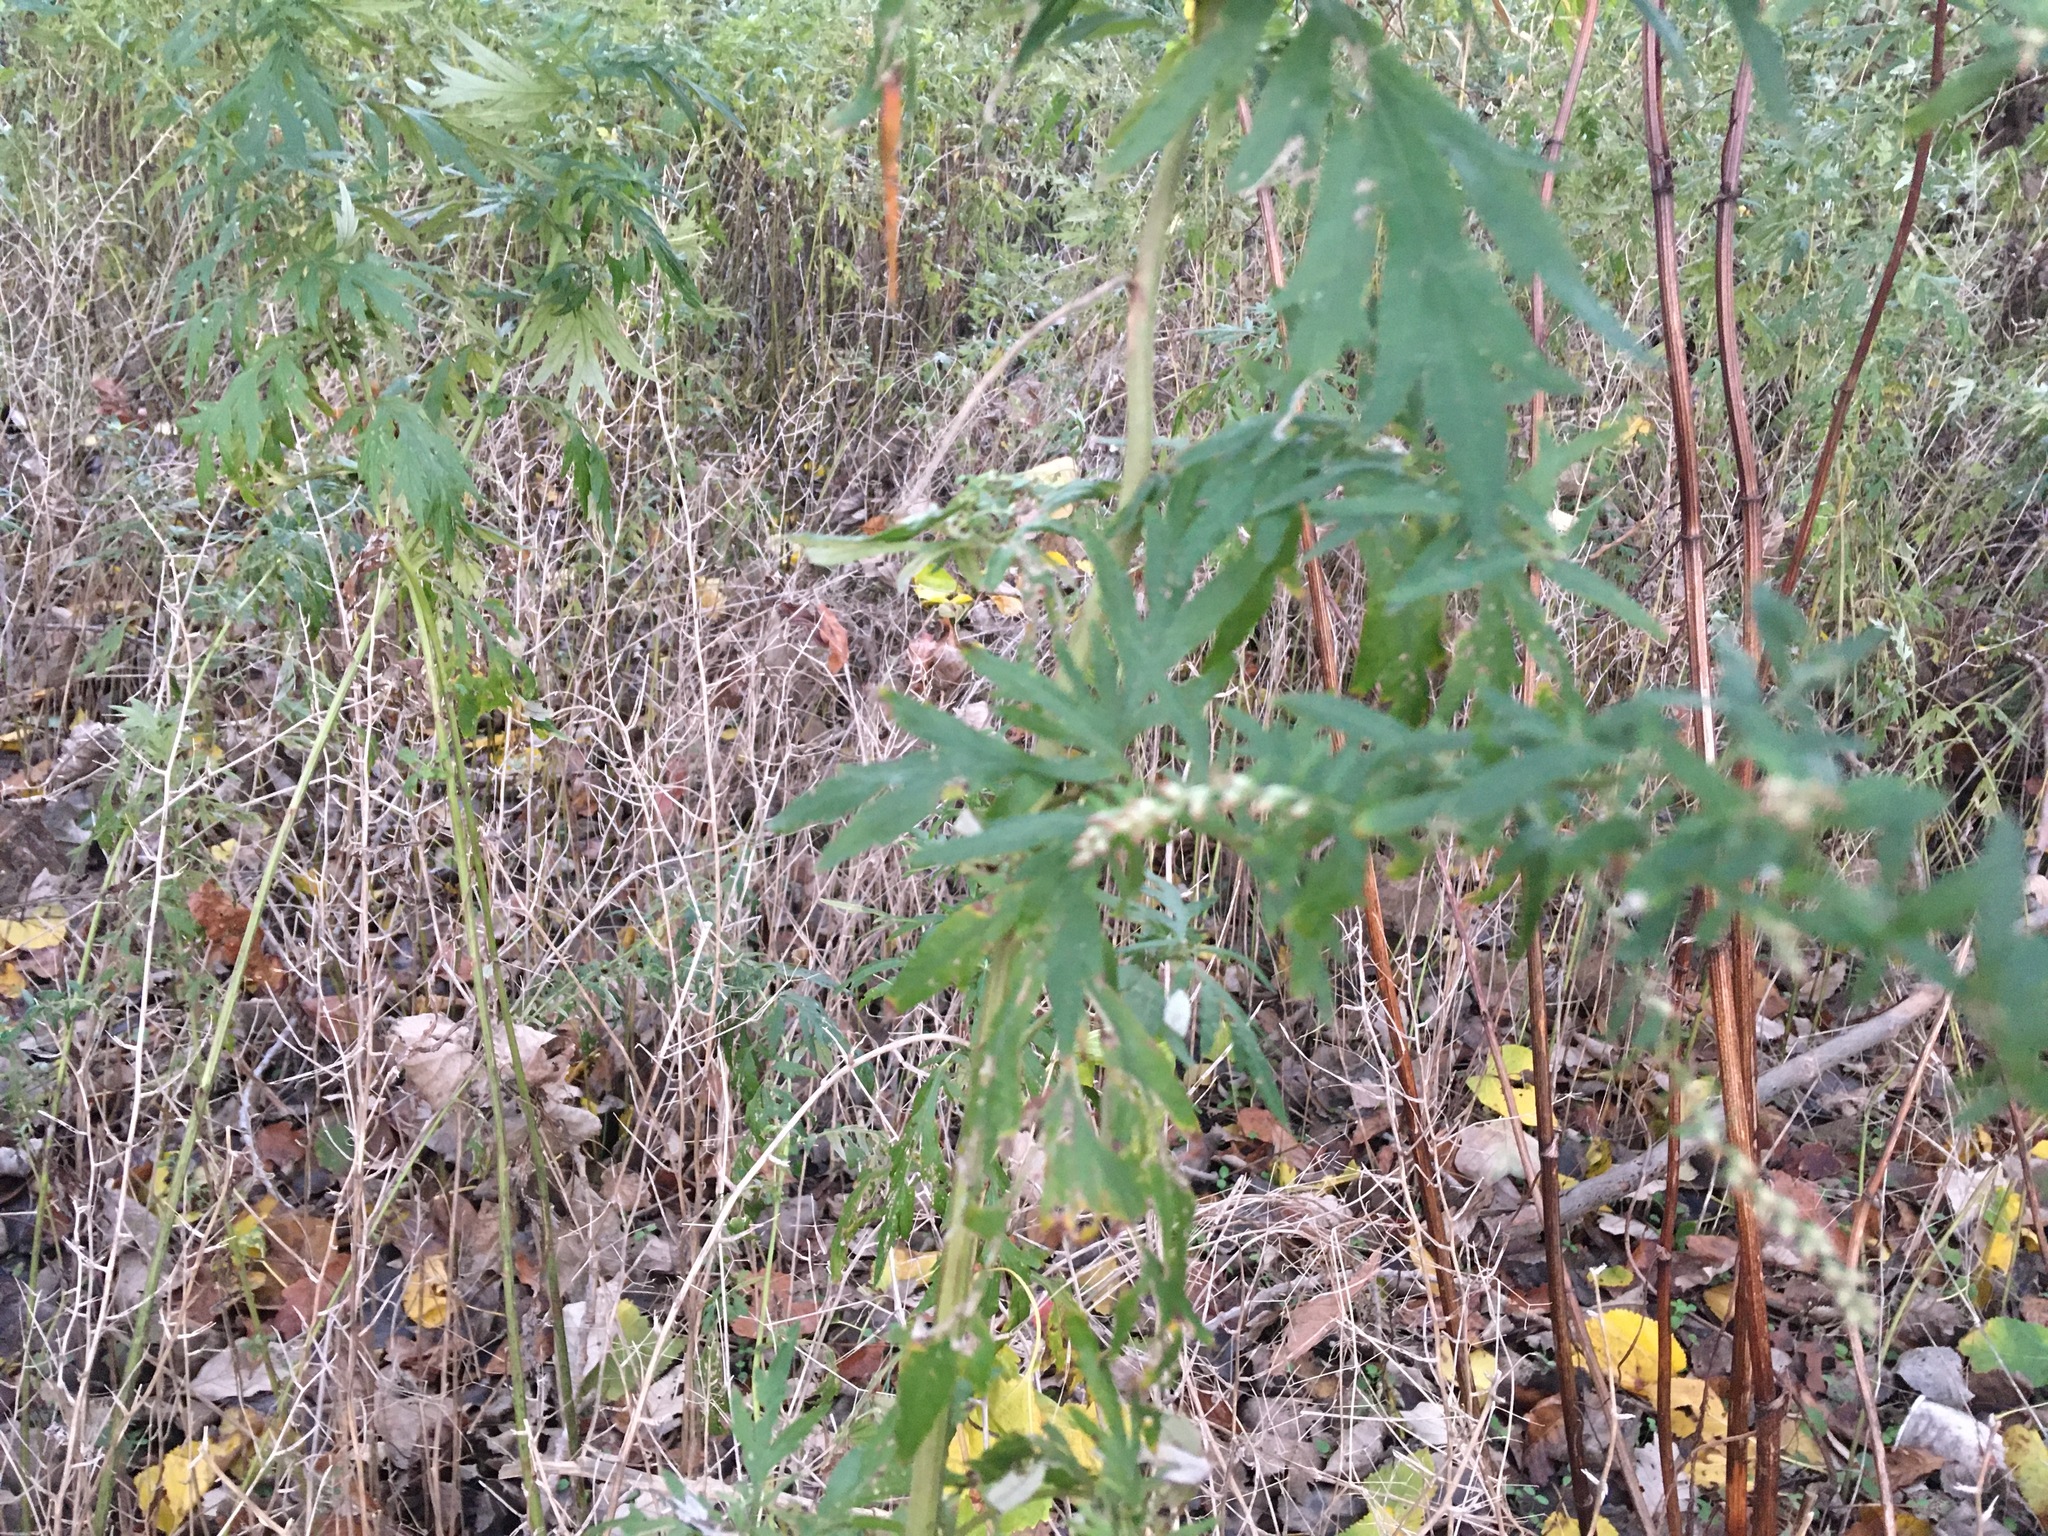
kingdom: Plantae
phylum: Tracheophyta
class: Magnoliopsida
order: Asterales
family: Asteraceae
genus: Artemisia
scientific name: Artemisia vulgaris
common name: Mugwort
